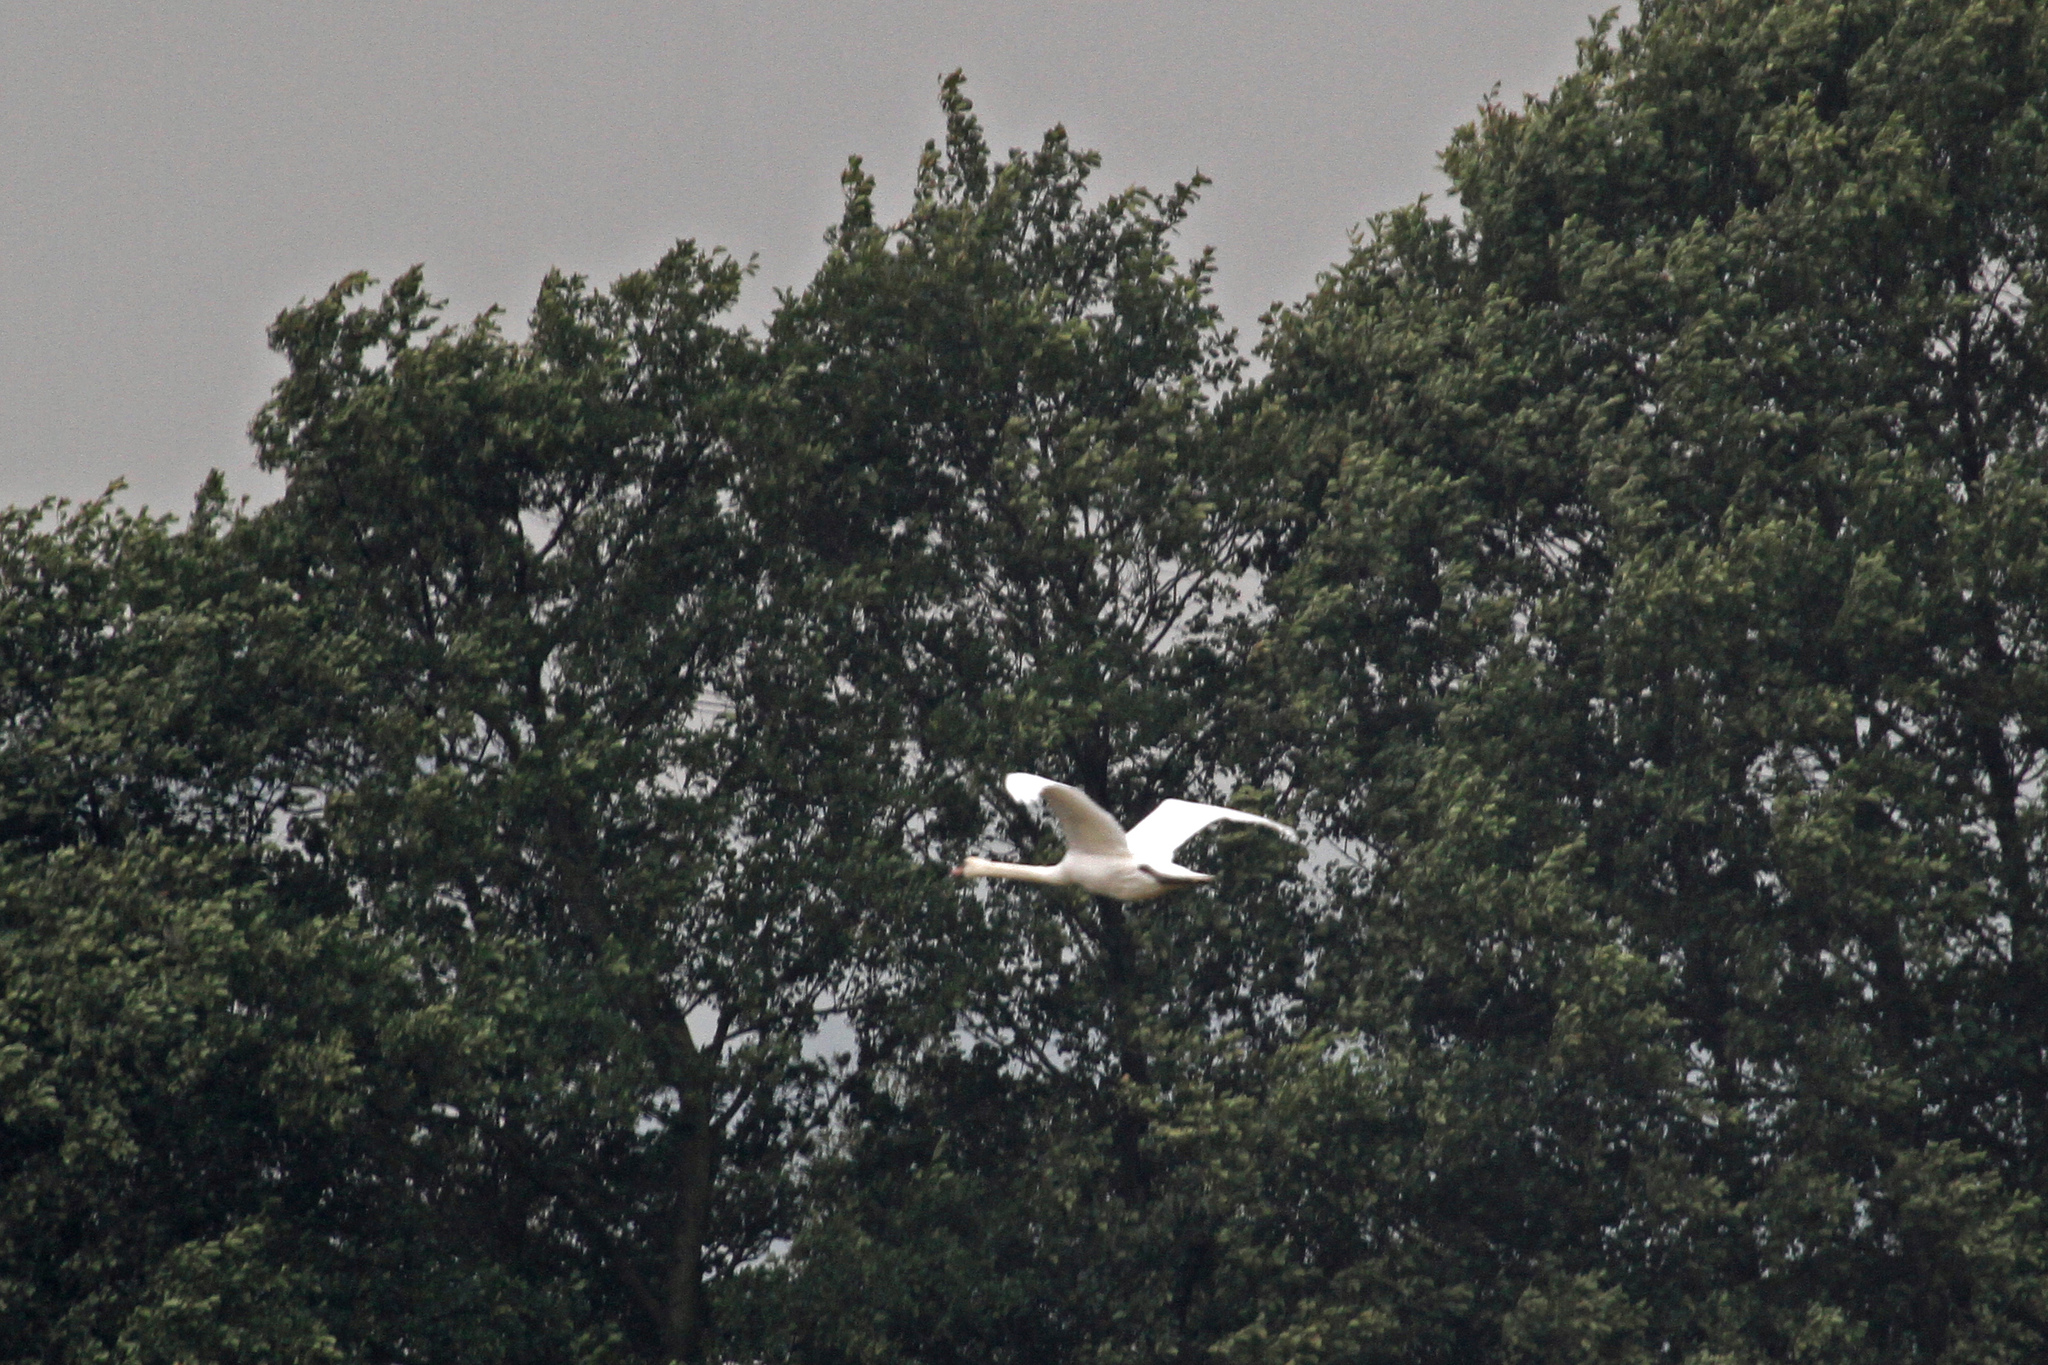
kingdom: Animalia
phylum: Chordata
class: Aves
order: Anseriformes
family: Anatidae
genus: Cygnus
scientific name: Cygnus olor
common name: Mute swan
